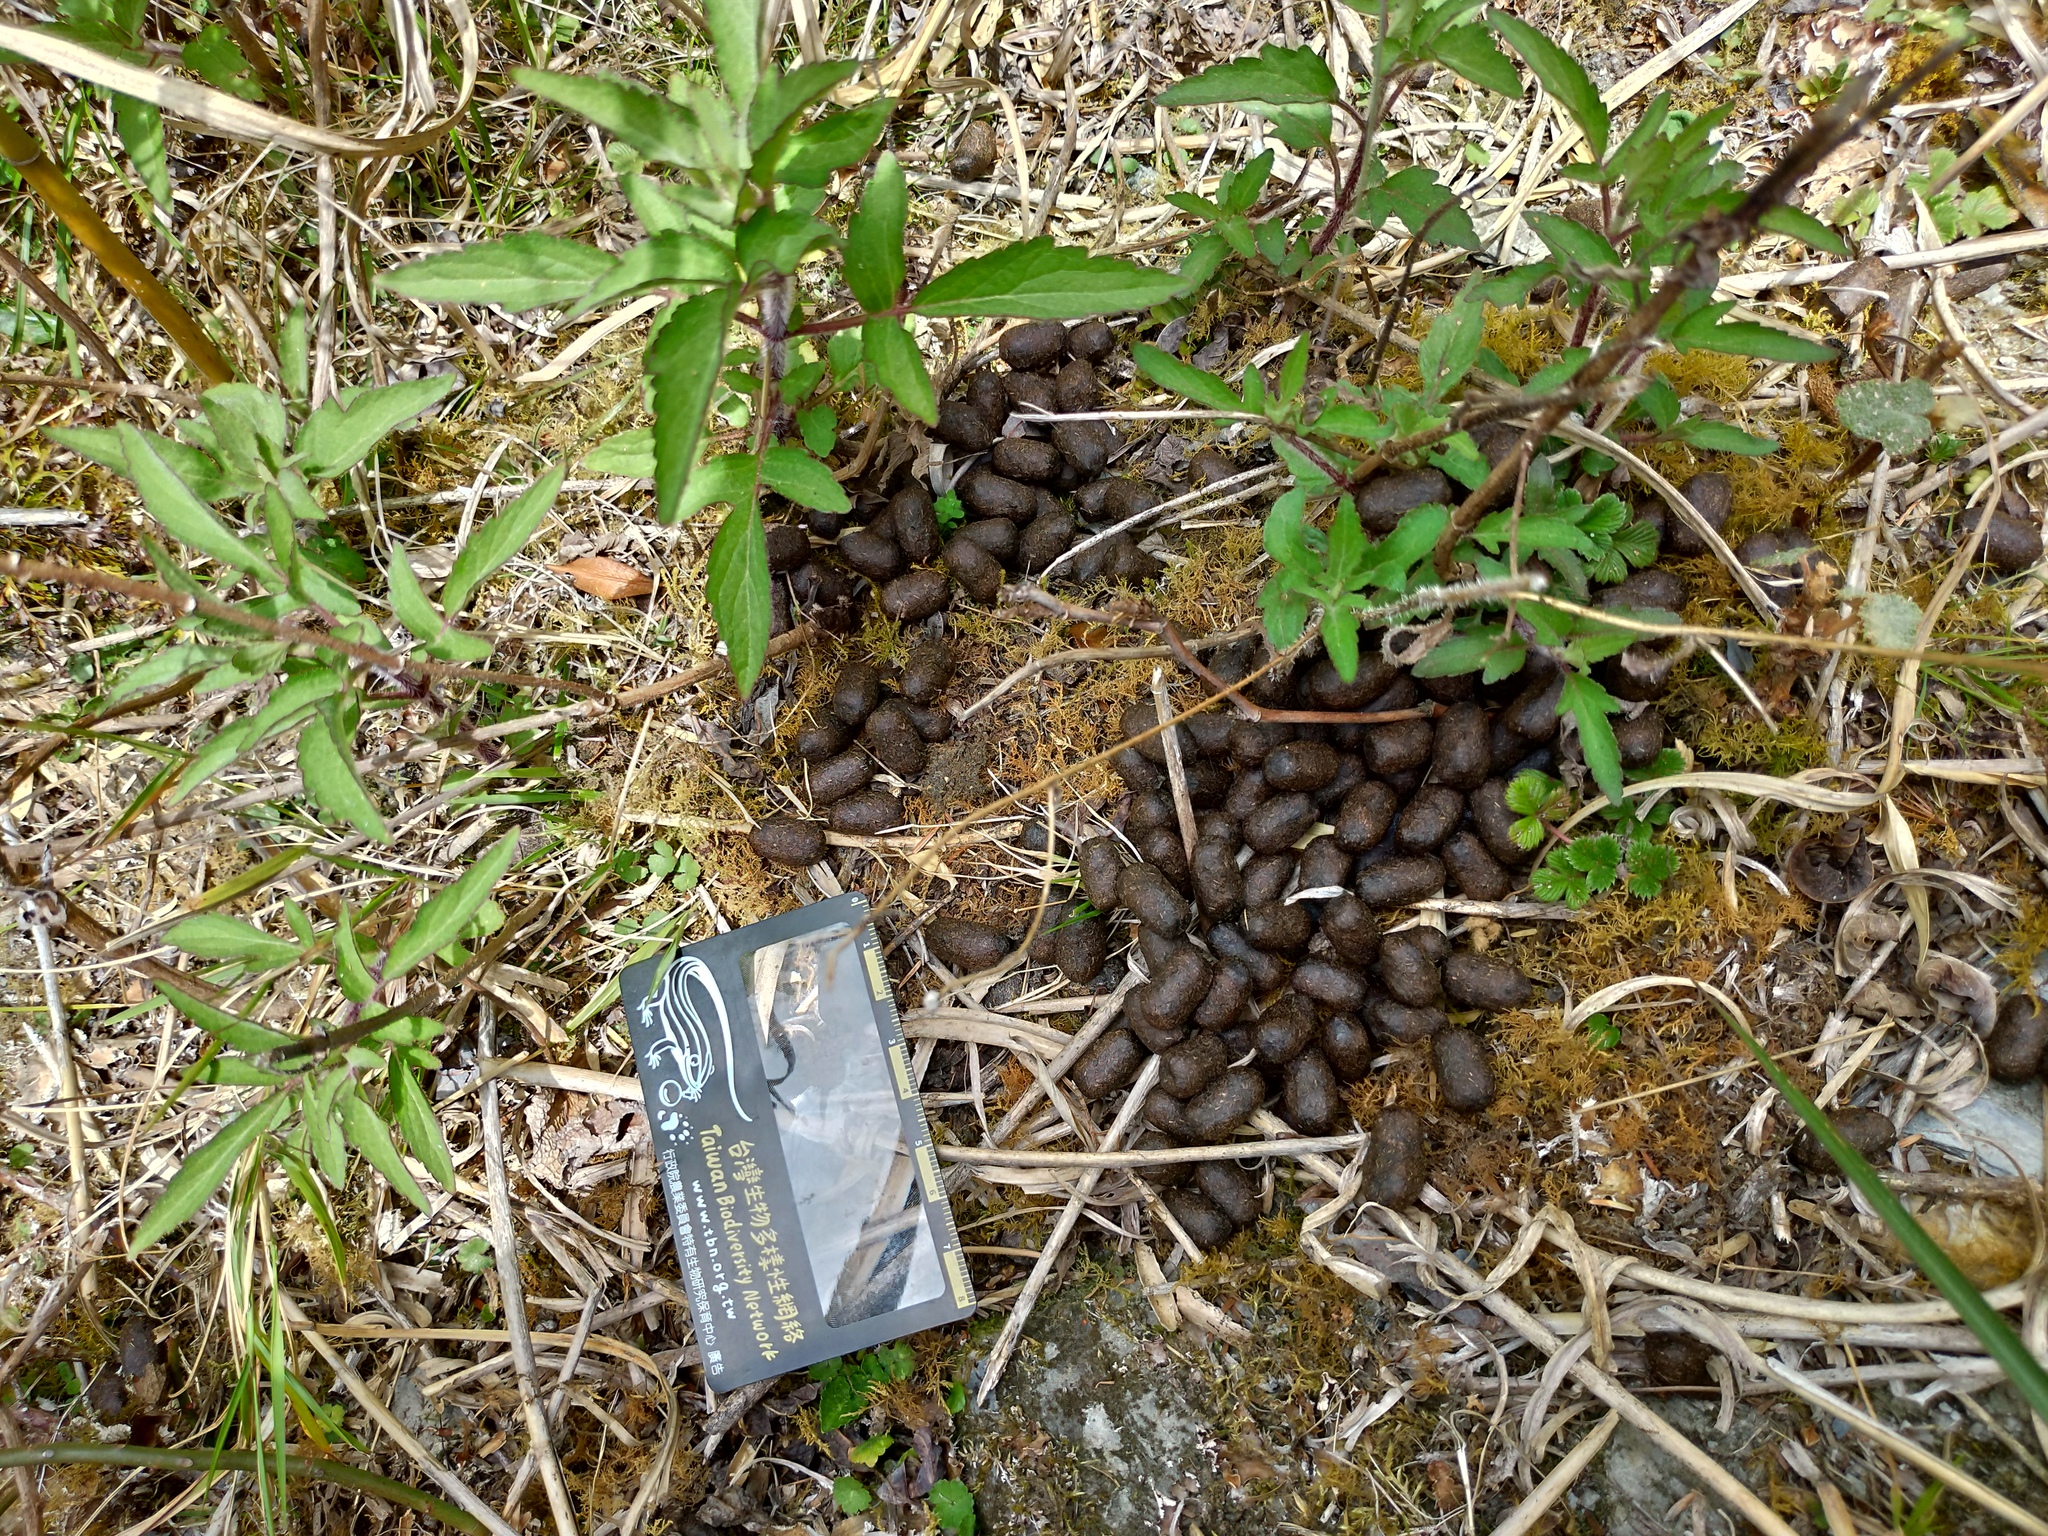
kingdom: Animalia
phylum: Chordata
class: Mammalia
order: Artiodactyla
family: Bovidae
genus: Capra
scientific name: Capra hircus
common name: Domestic goat
